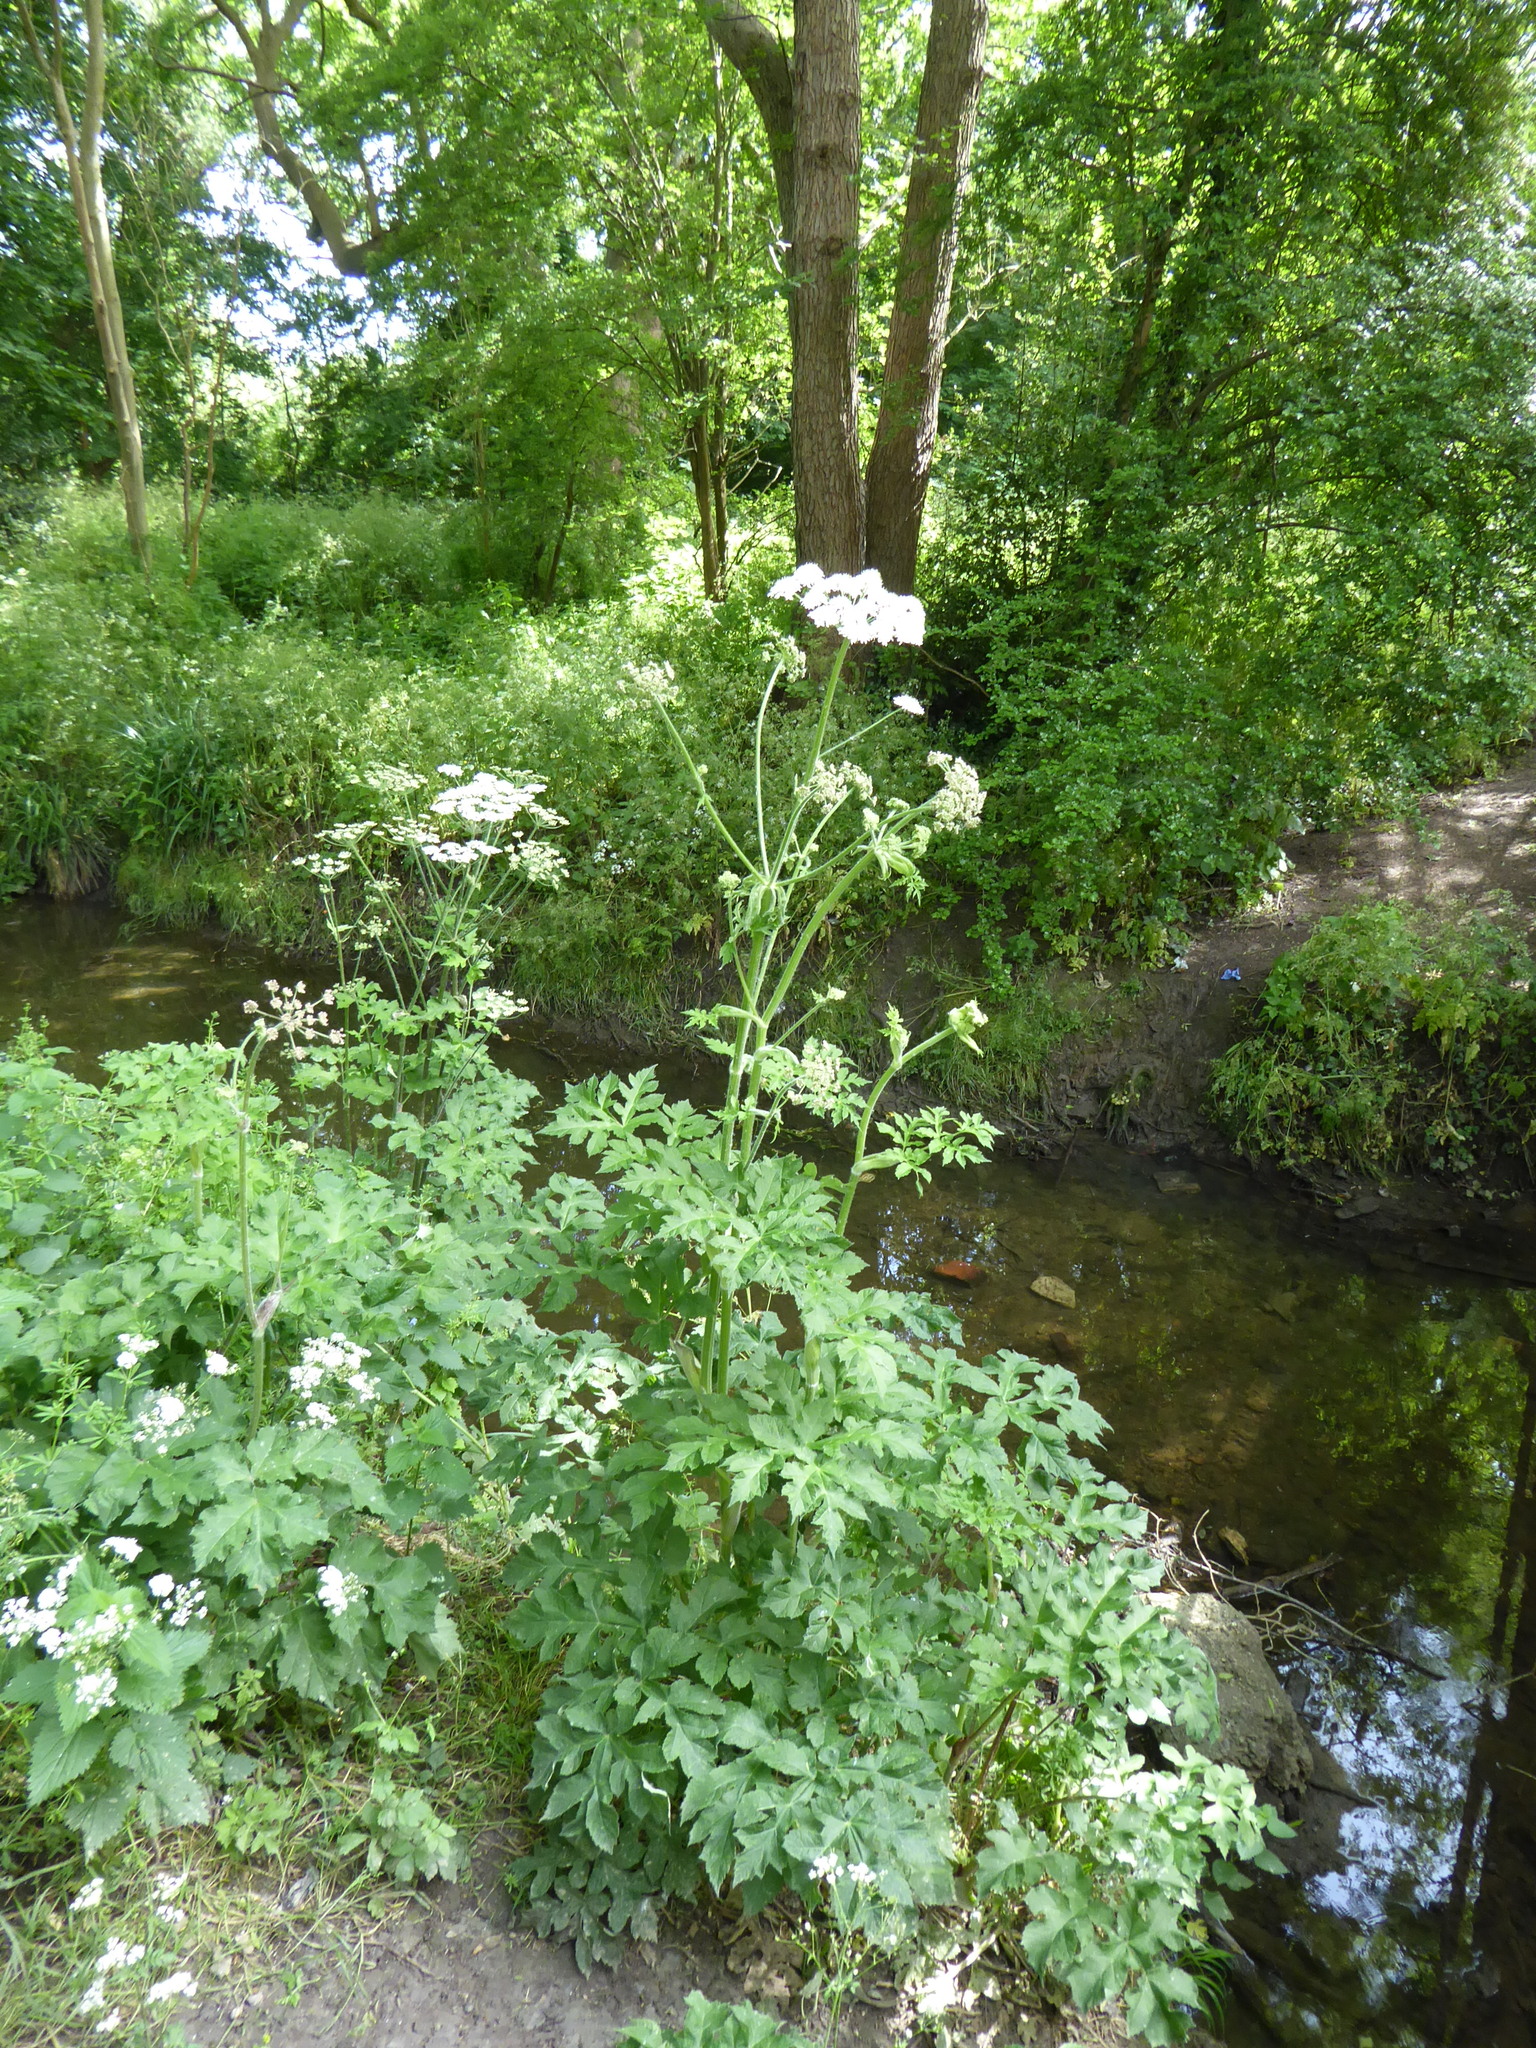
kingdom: Plantae
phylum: Tracheophyta
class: Magnoliopsida
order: Apiales
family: Apiaceae
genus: Heracleum
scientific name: Heracleum sphondylium
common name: Hogweed
